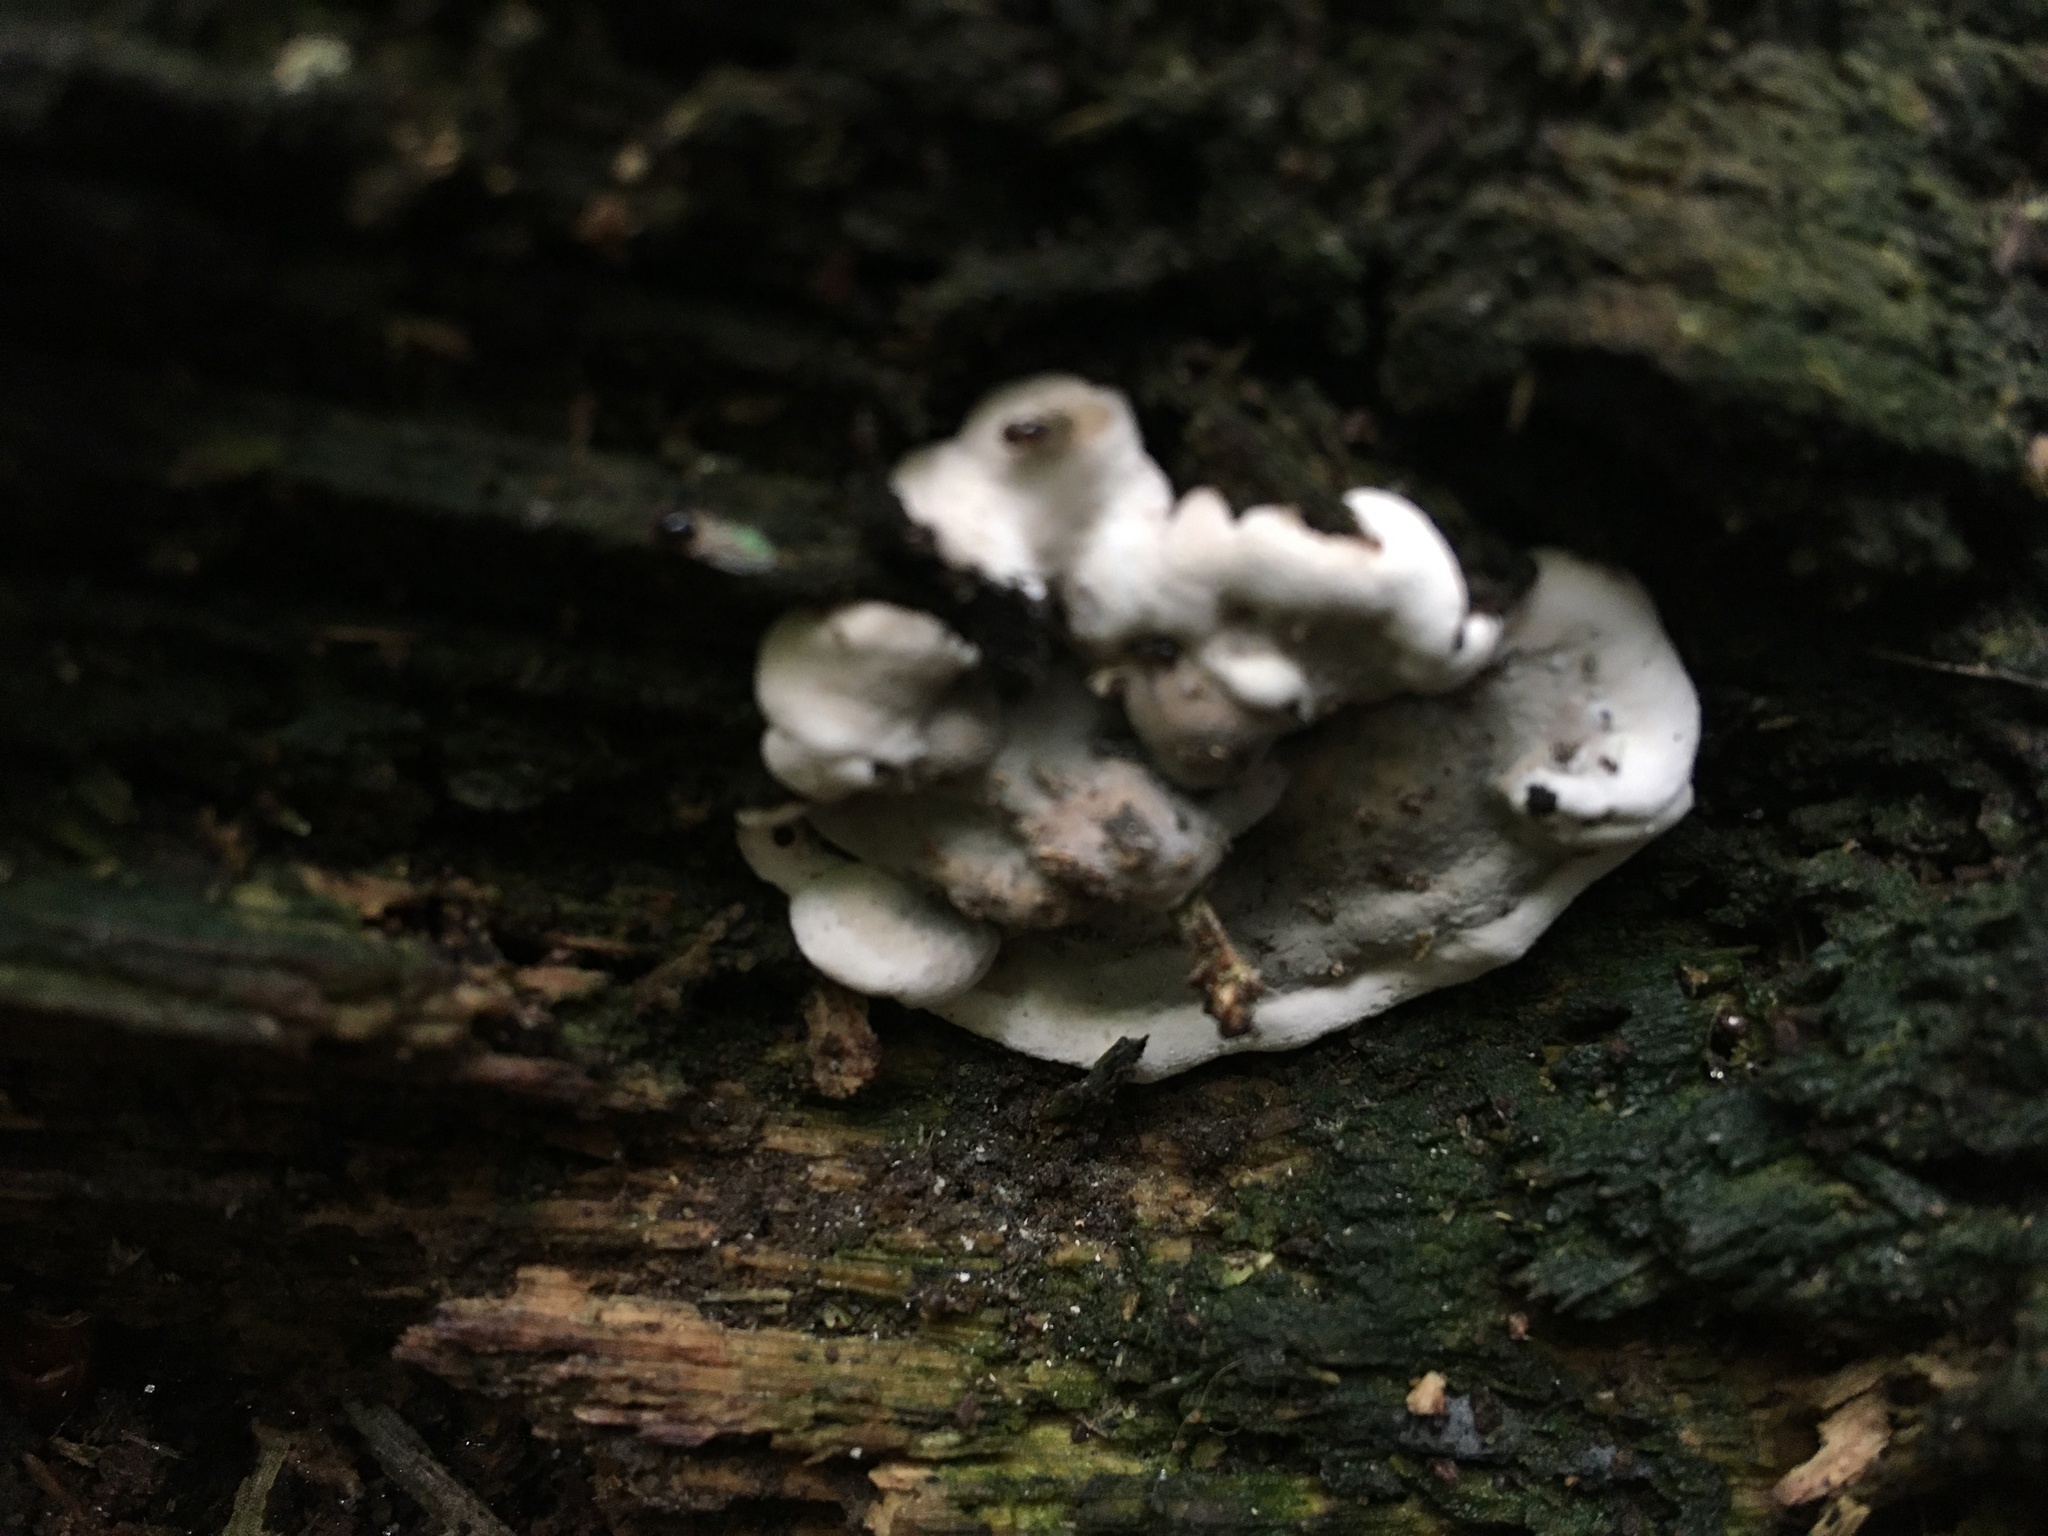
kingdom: Fungi
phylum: Ascomycota
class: Sordariomycetes
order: Xylariales
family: Xylariaceae
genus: Kretzschmaria
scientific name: Kretzschmaria deusta
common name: Brittle cinder
